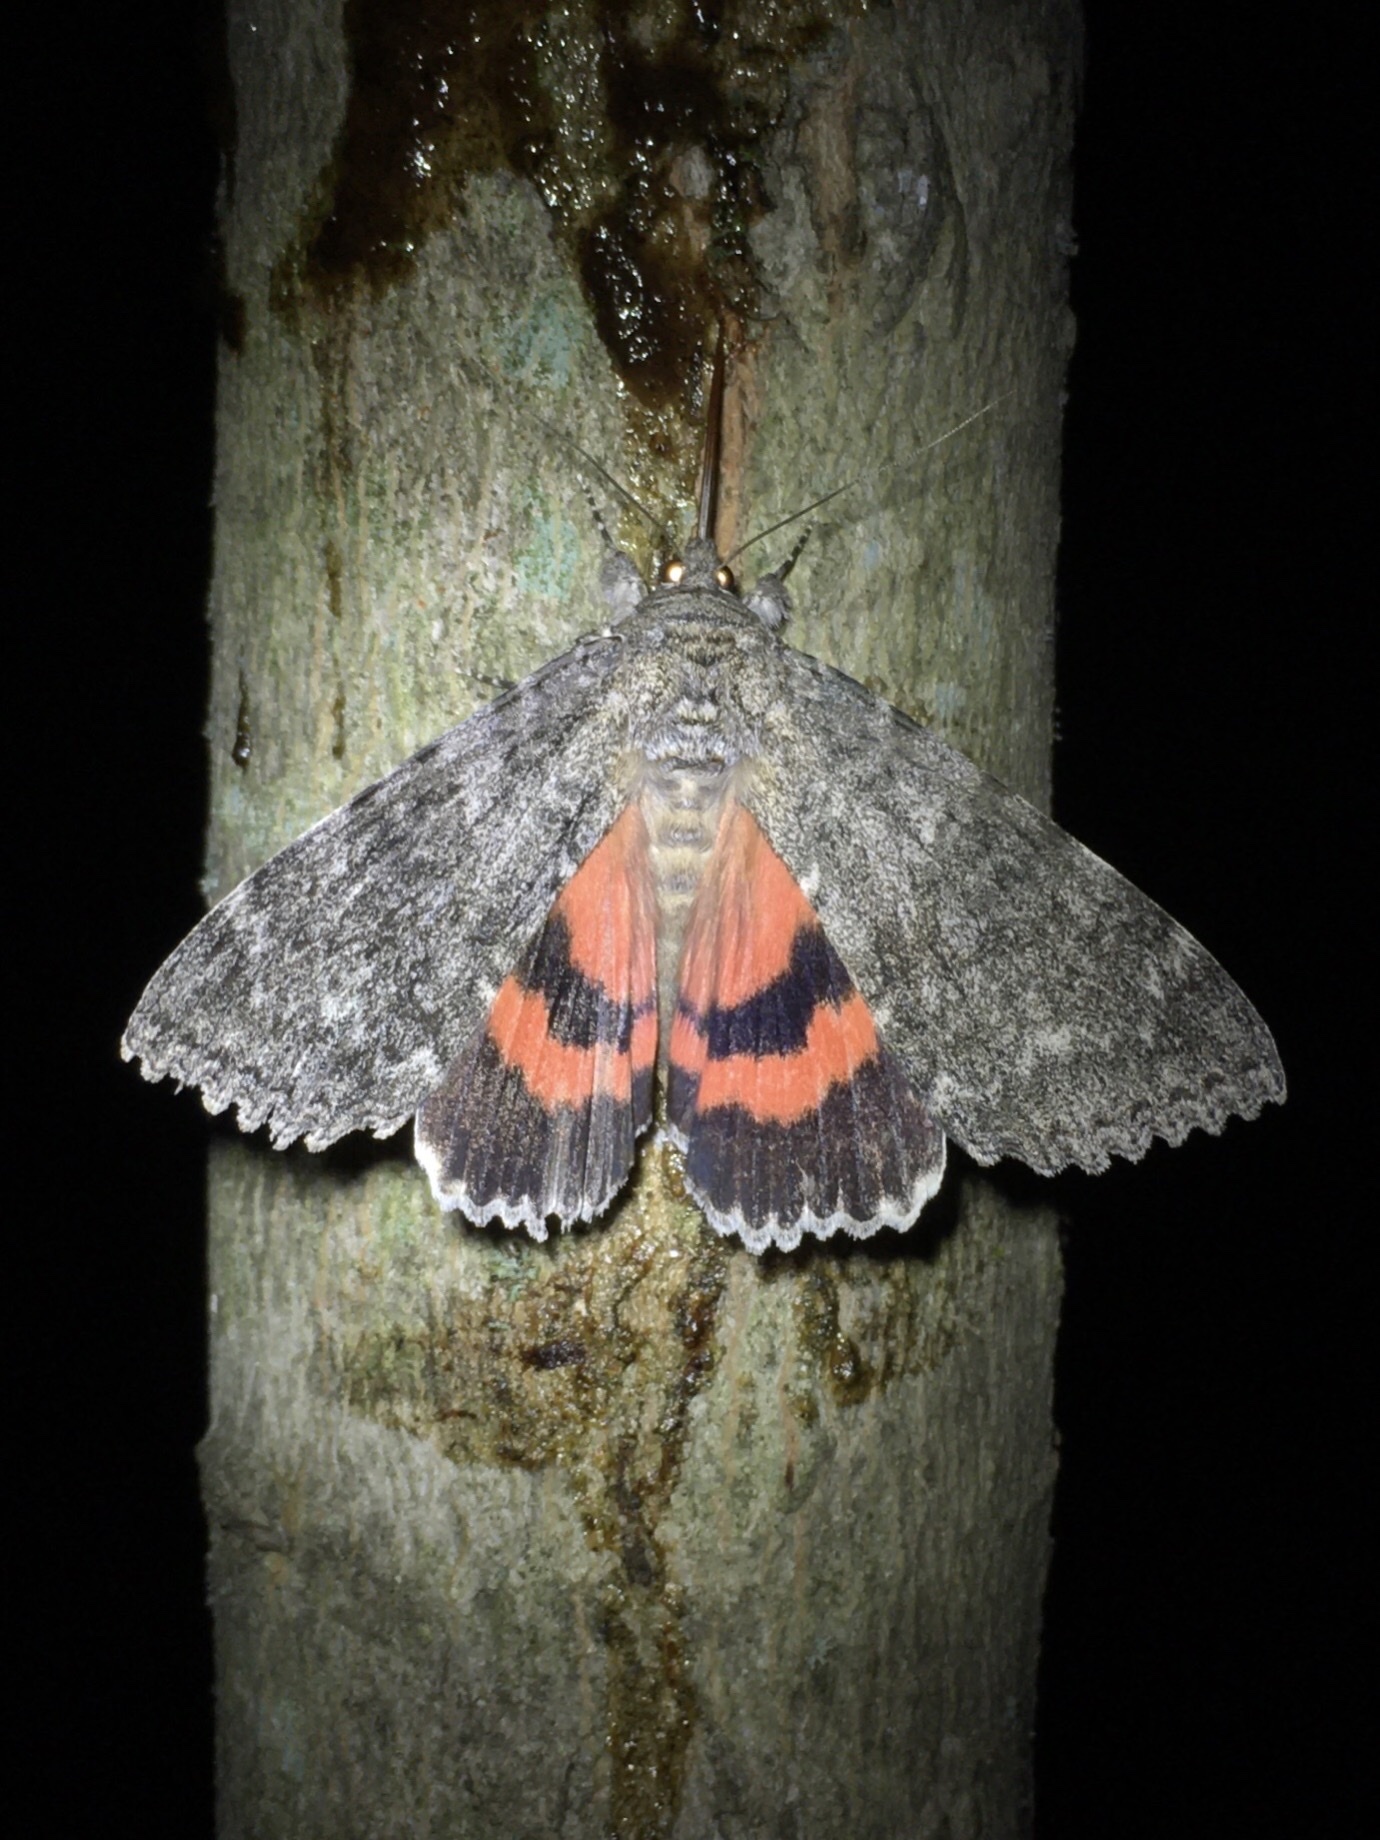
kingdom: Animalia
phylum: Arthropoda
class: Insecta
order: Lepidoptera
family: Erebidae
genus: Catocala
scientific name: Catocala unijuga
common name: Once-married underwing
